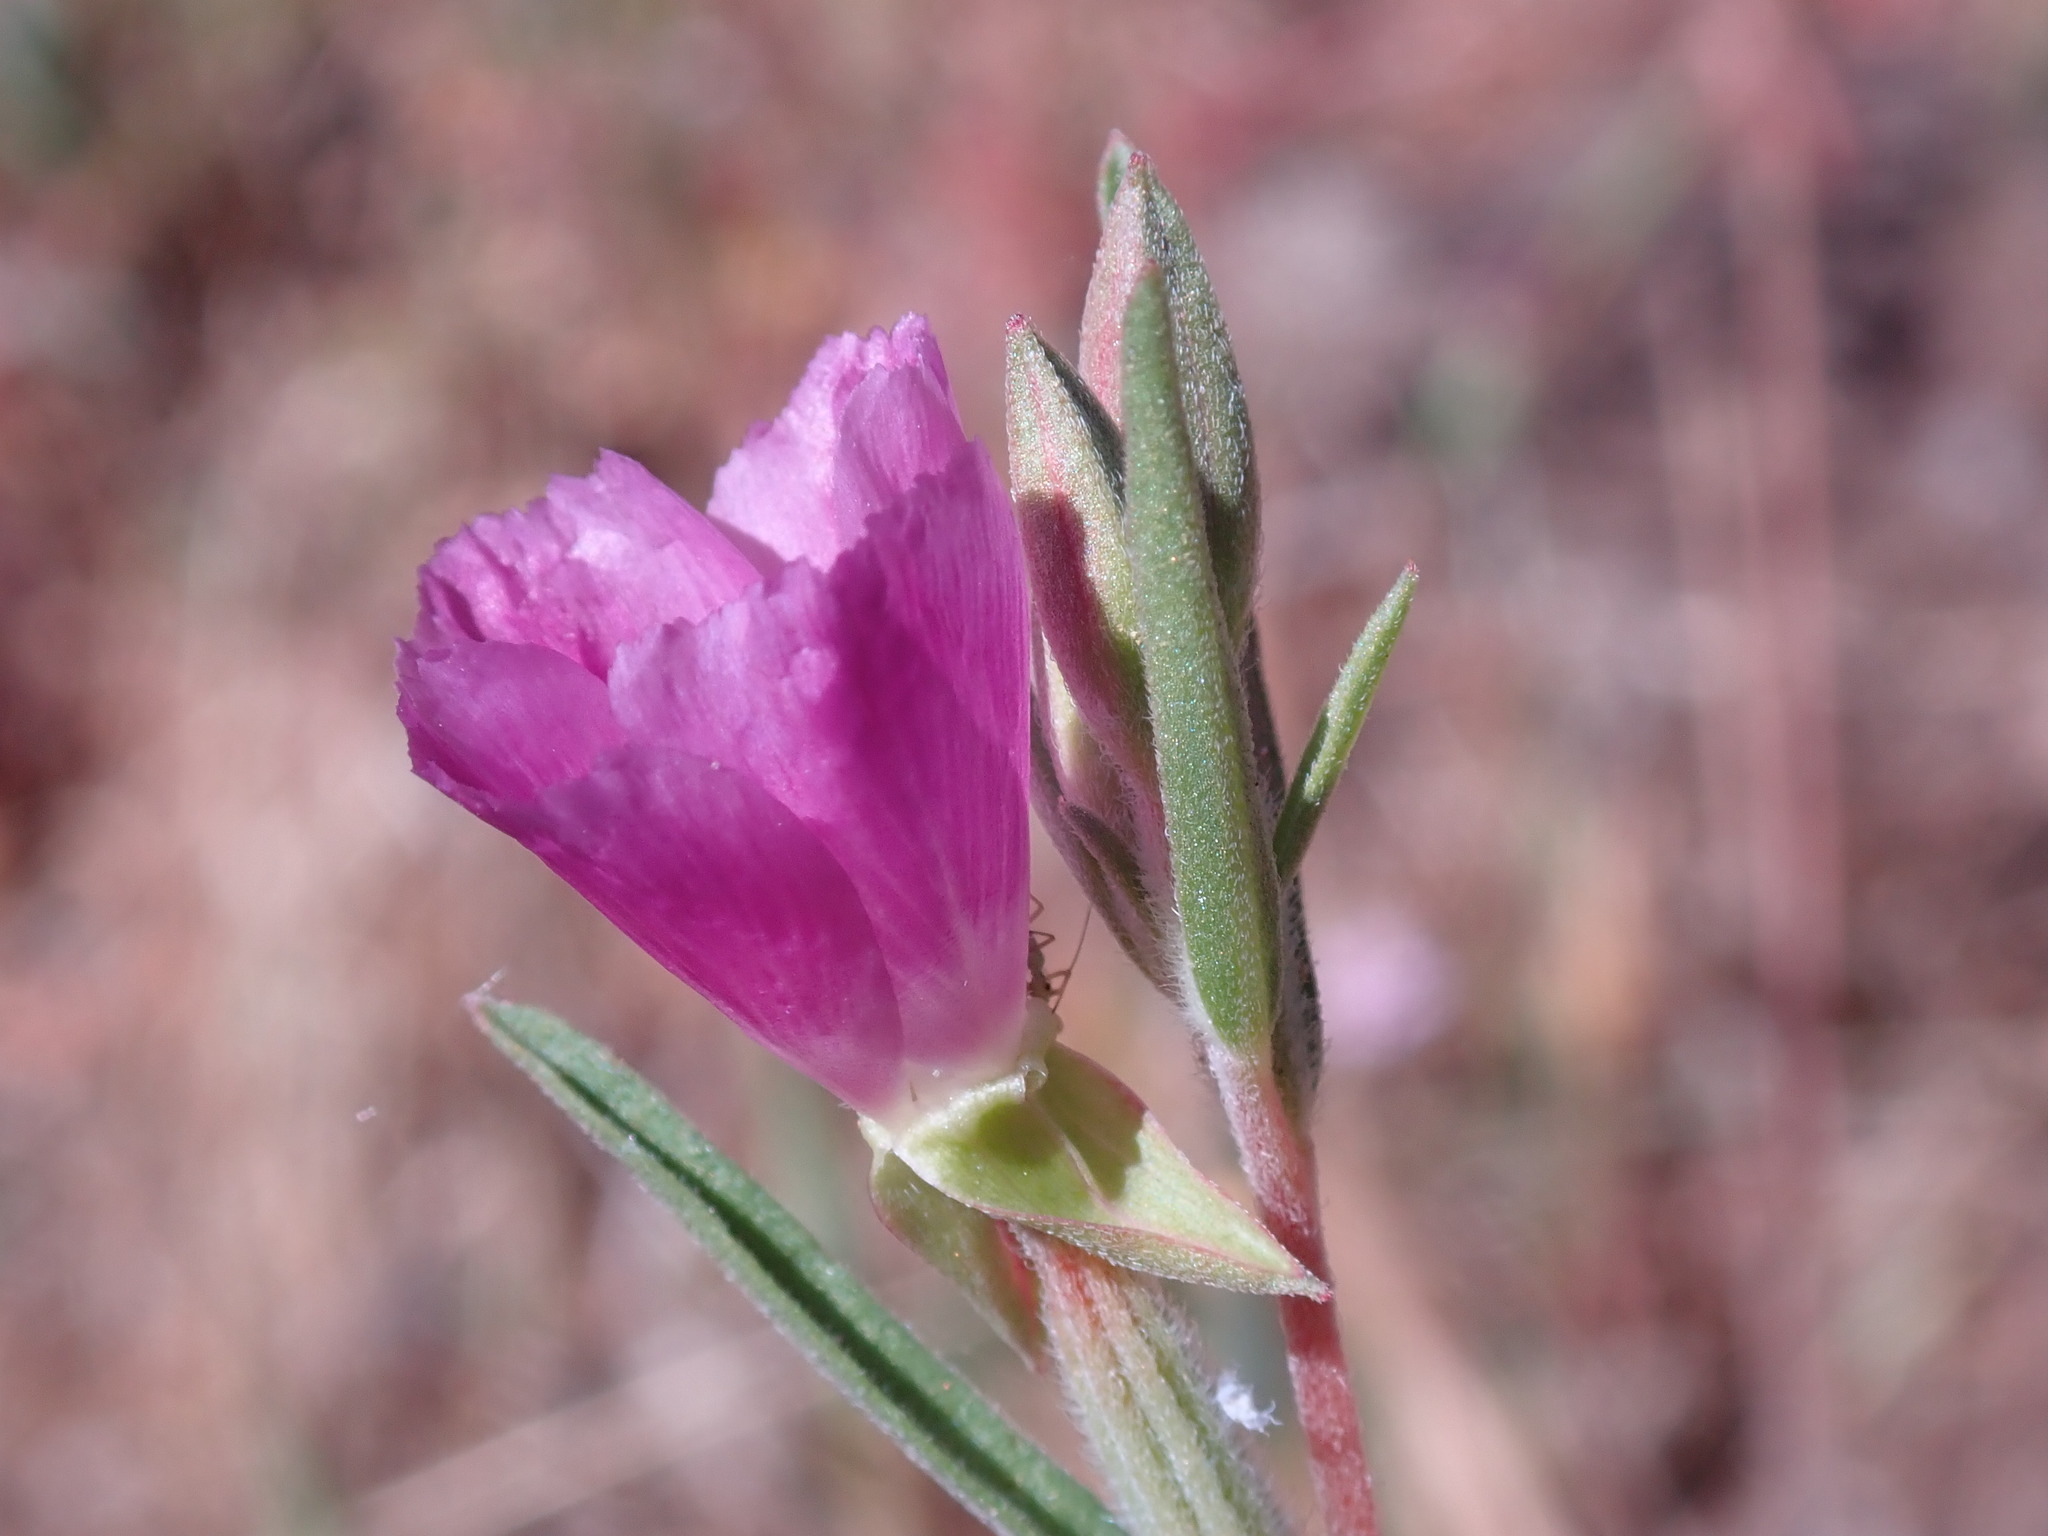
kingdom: Plantae
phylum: Tracheophyta
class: Magnoliopsida
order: Myrtales
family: Onagraceae
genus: Clarkia
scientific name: Clarkia purpurea
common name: Purple clarkia
